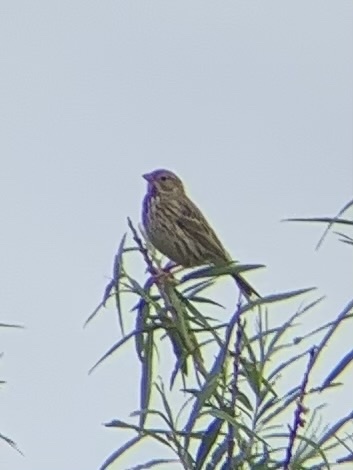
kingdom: Animalia
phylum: Chordata
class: Aves
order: Passeriformes
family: Emberizidae
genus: Emberiza
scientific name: Emberiza calandra
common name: Corn bunting
